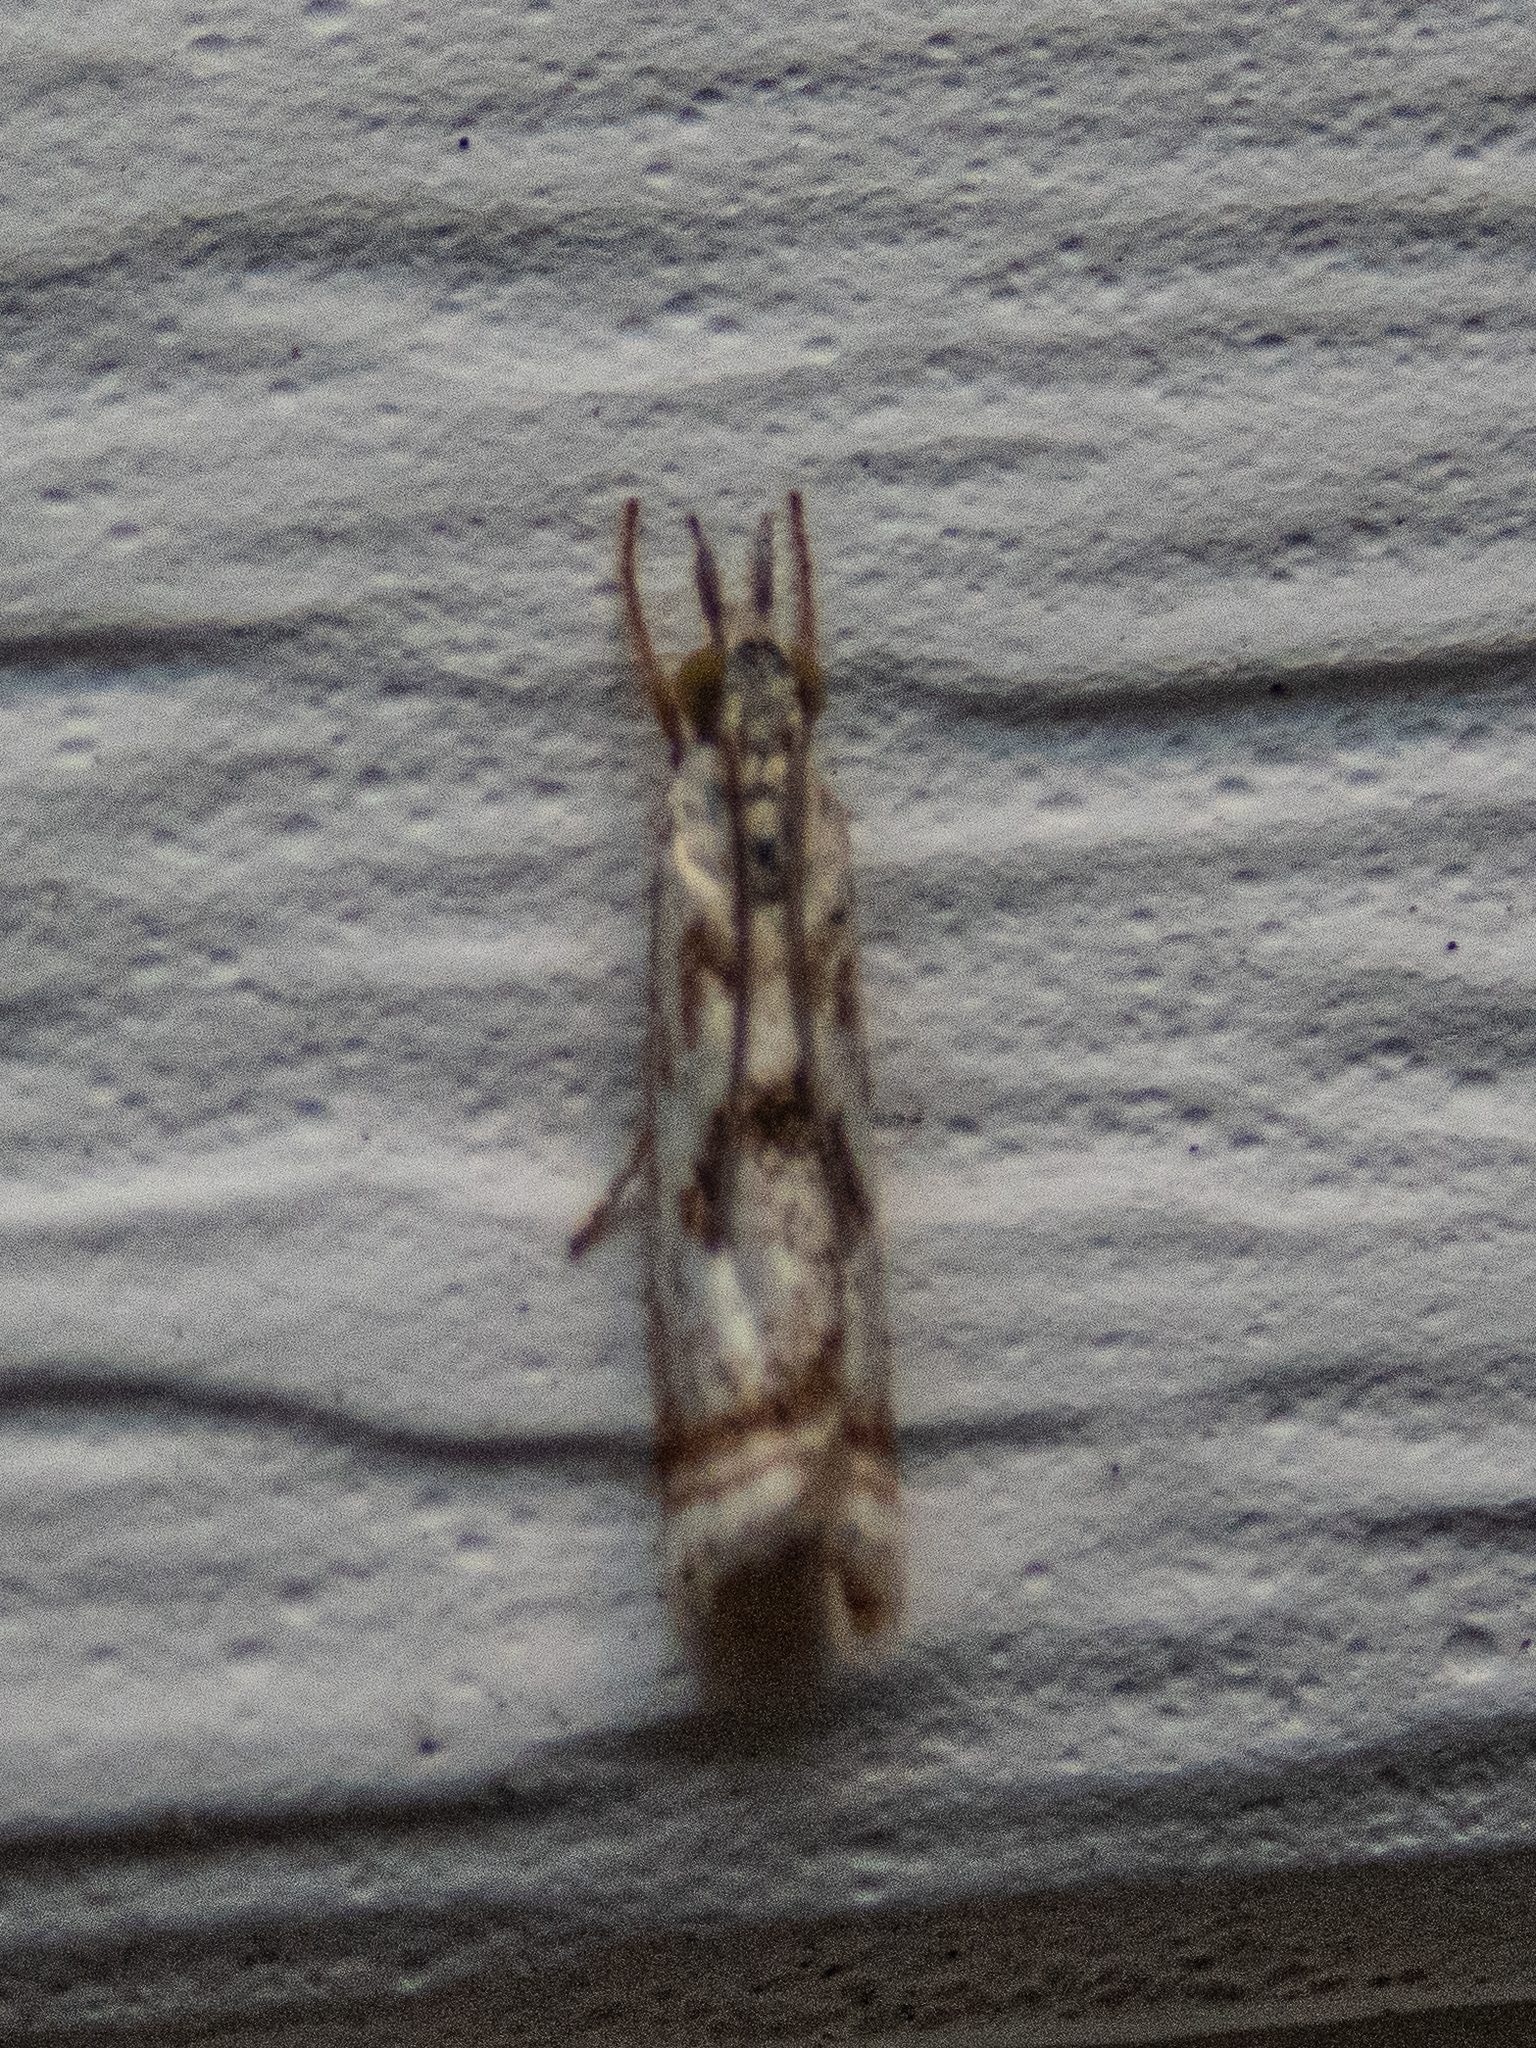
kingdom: Animalia
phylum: Arthropoda
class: Insecta
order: Lepidoptera
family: Crambidae
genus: Microcrambus
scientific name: Microcrambus elegans
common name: Elegant grass-veneer
